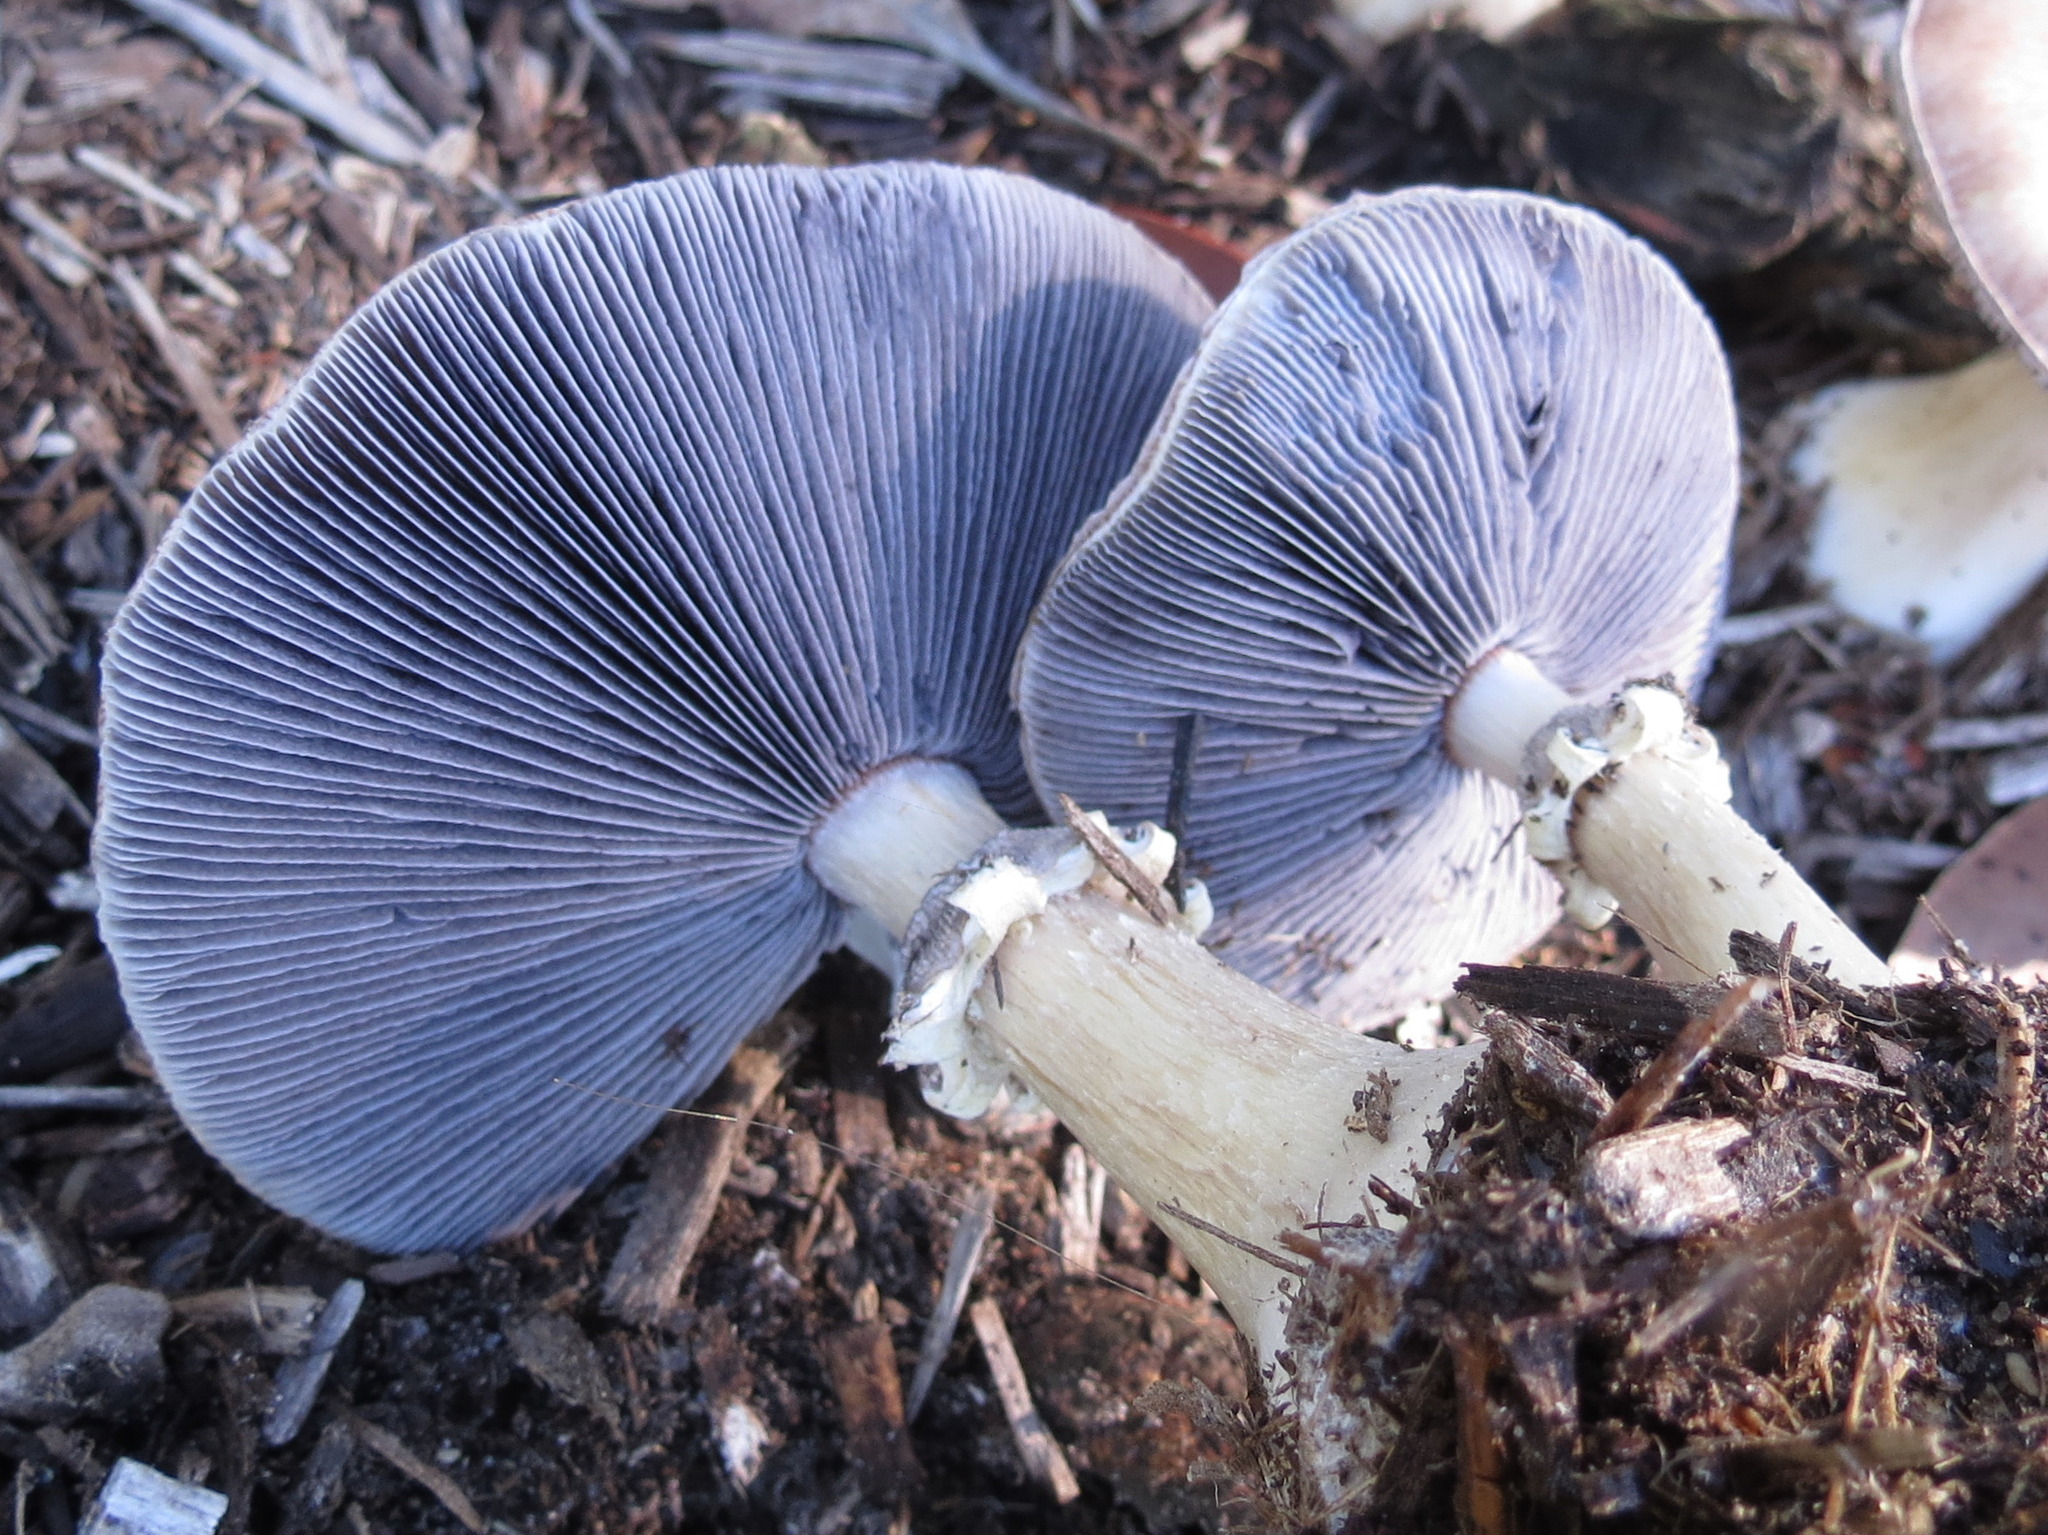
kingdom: Fungi
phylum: Basidiomycota
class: Agaricomycetes
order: Agaricales
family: Strophariaceae
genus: Stropharia
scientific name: Stropharia rugosoannulata
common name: Wine roundhead
